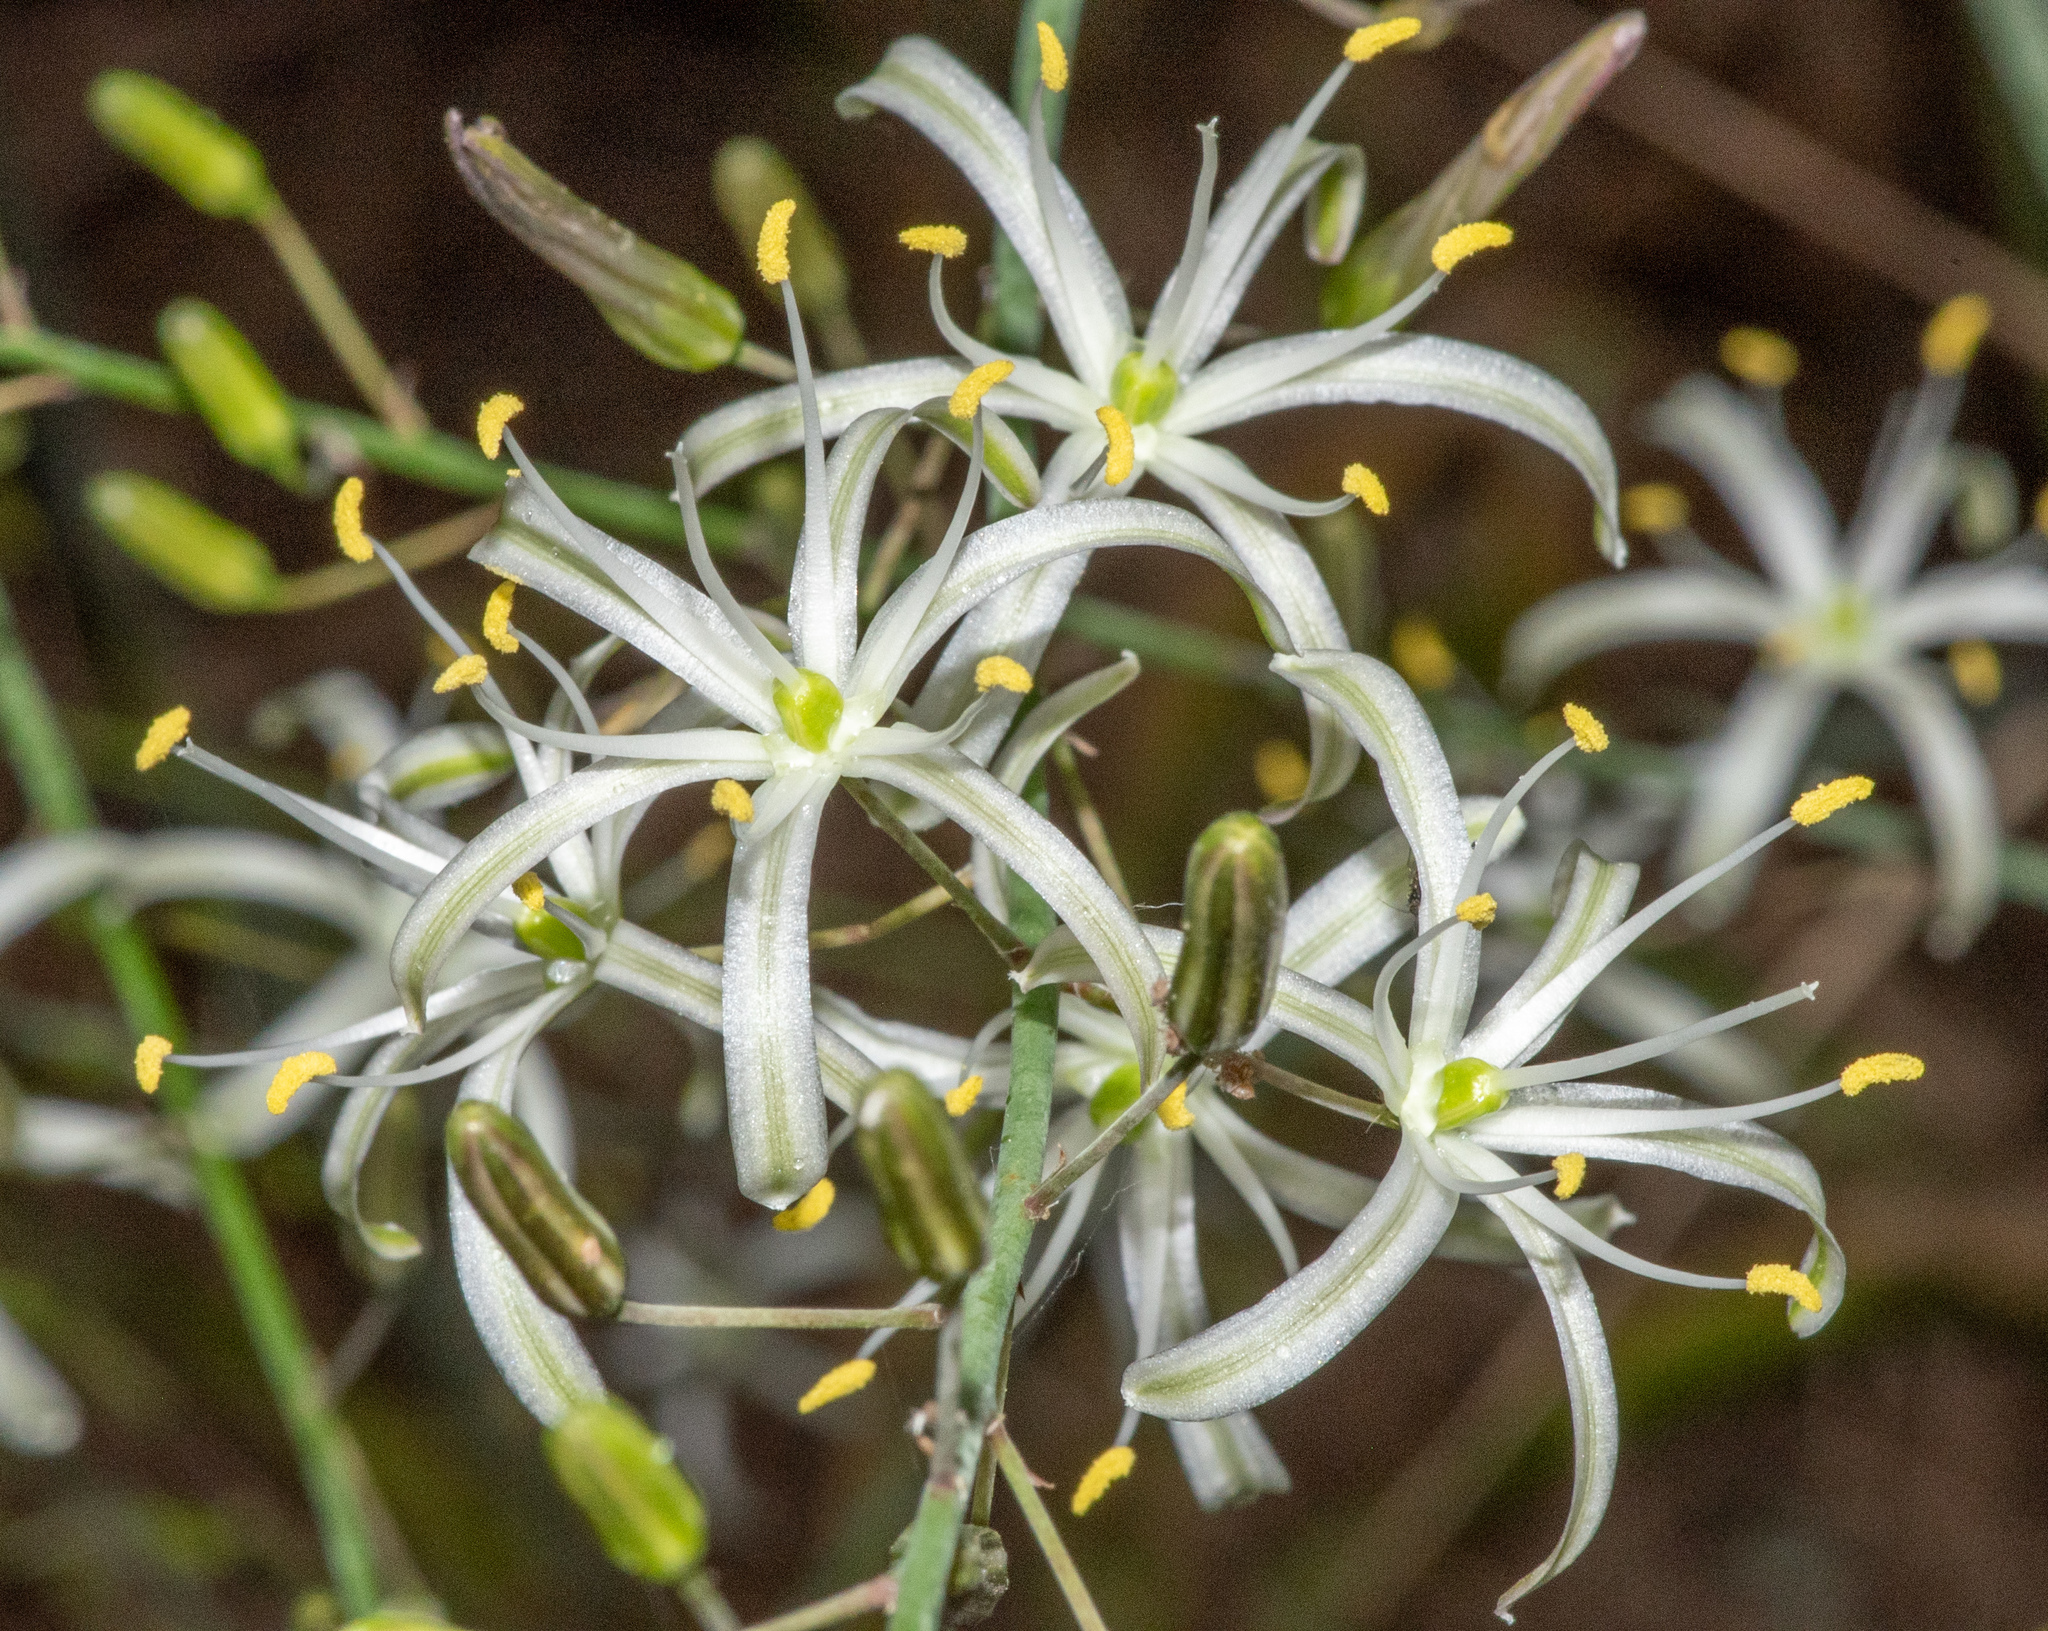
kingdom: Plantae
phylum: Tracheophyta
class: Liliopsida
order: Asparagales
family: Asparagaceae
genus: Chlorogalum
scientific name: Chlorogalum pomeridianum
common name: Amole
